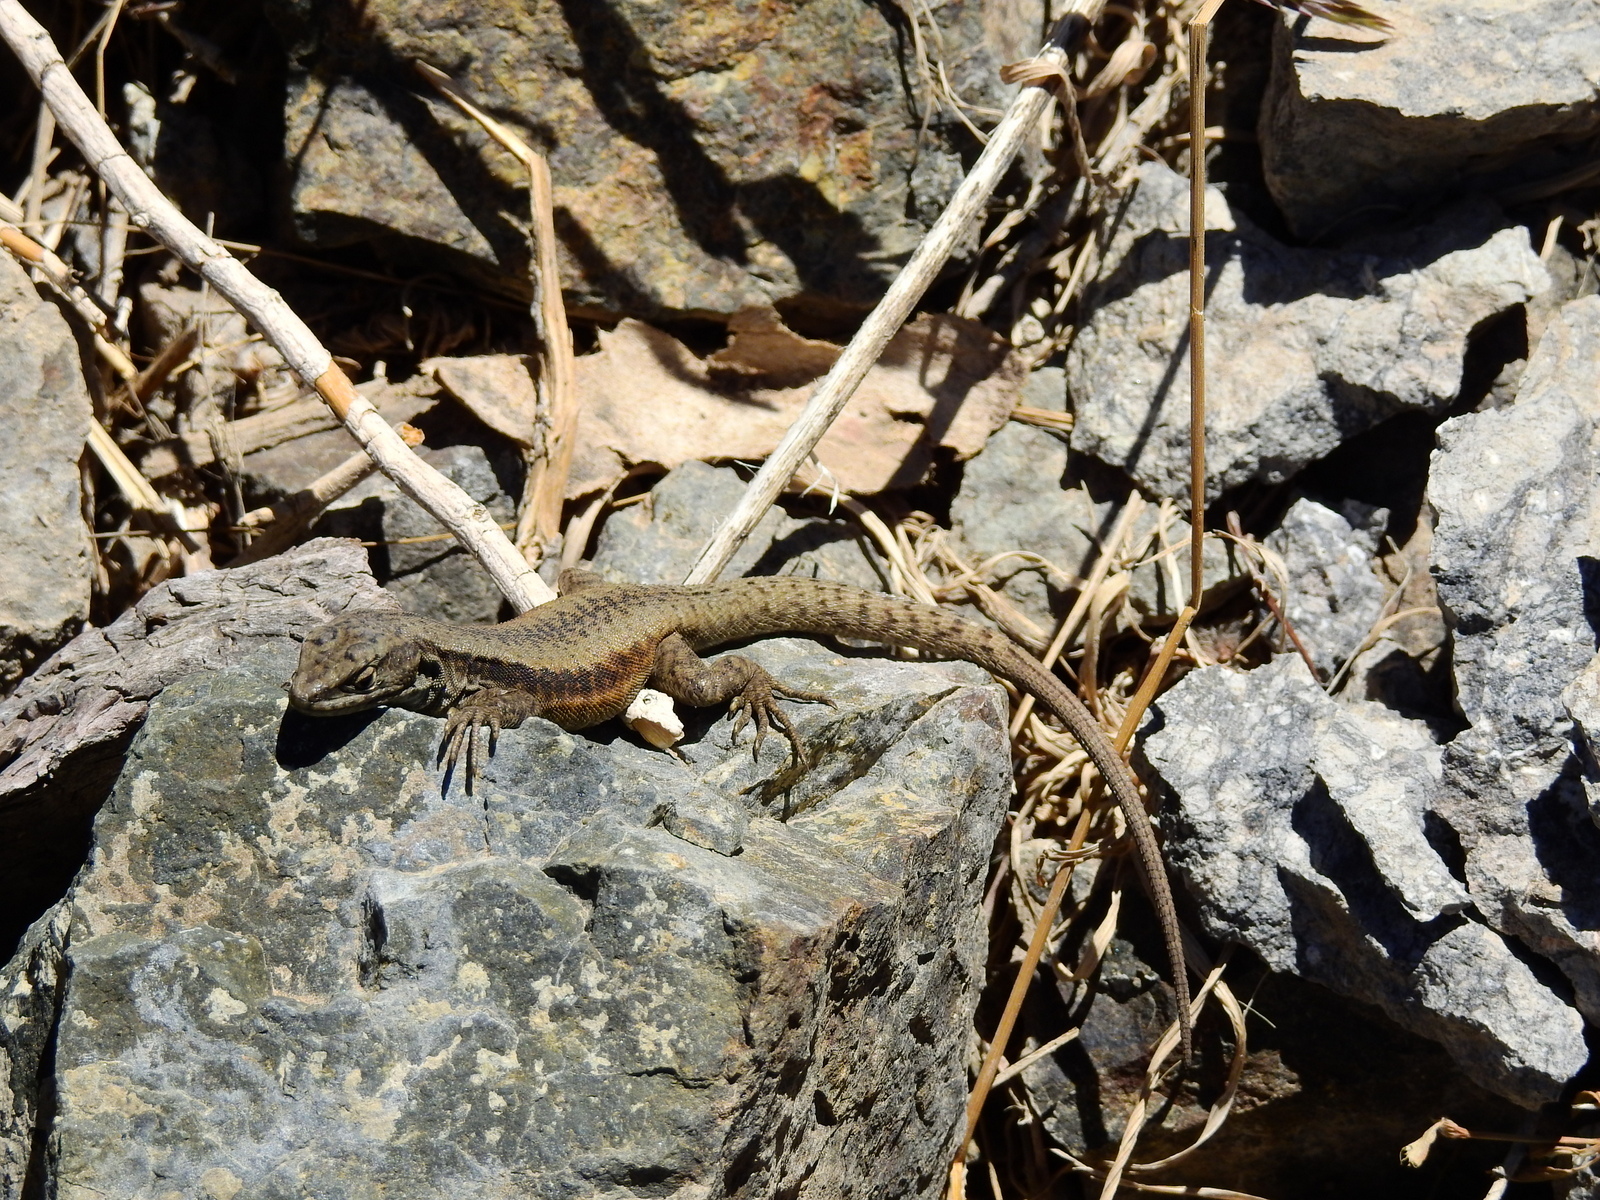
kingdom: Animalia
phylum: Chordata
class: Squamata
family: Liolaemidae
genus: Liolaemus
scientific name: Liolaemus parvus
